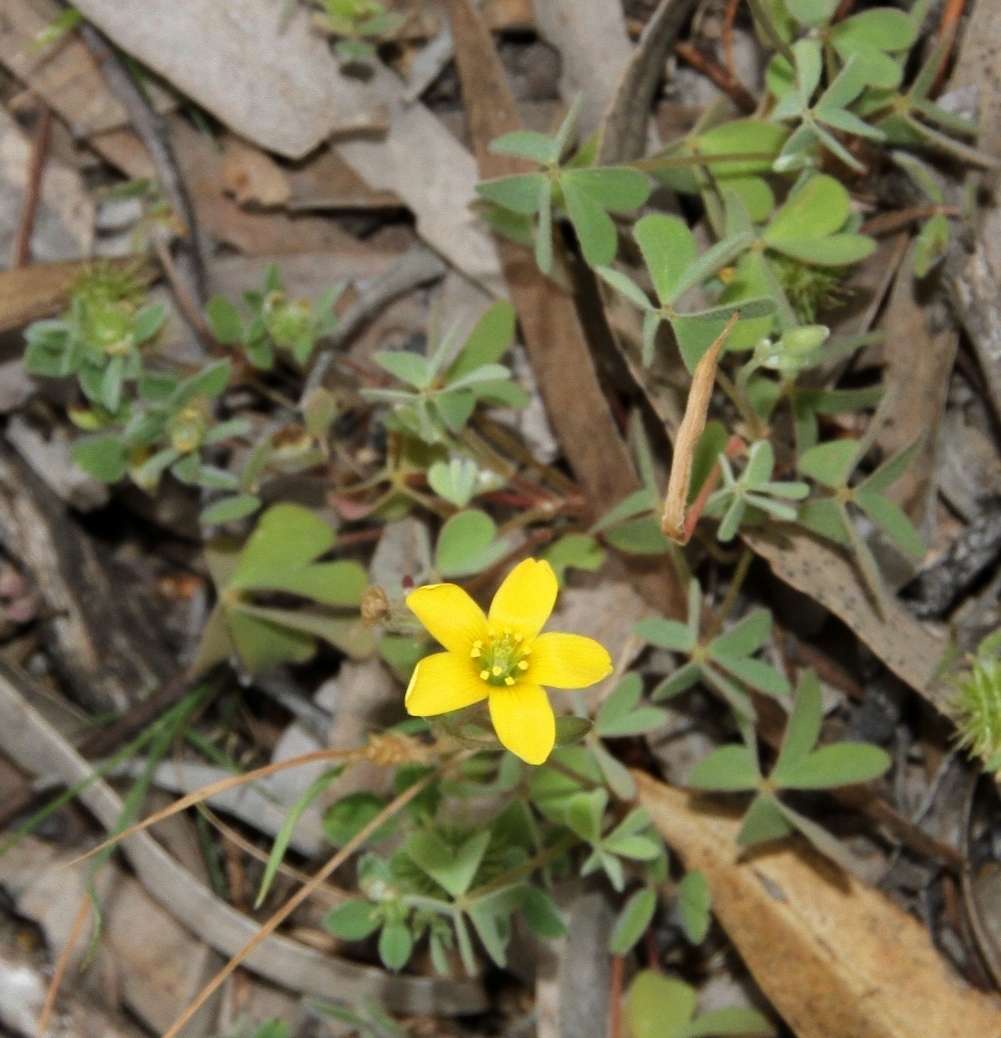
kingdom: Plantae
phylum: Tracheophyta
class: Magnoliopsida
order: Oxalidales
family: Oxalidaceae
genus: Oxalis
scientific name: Oxalis perennans
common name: Woody-rooted yellow-sorrel
